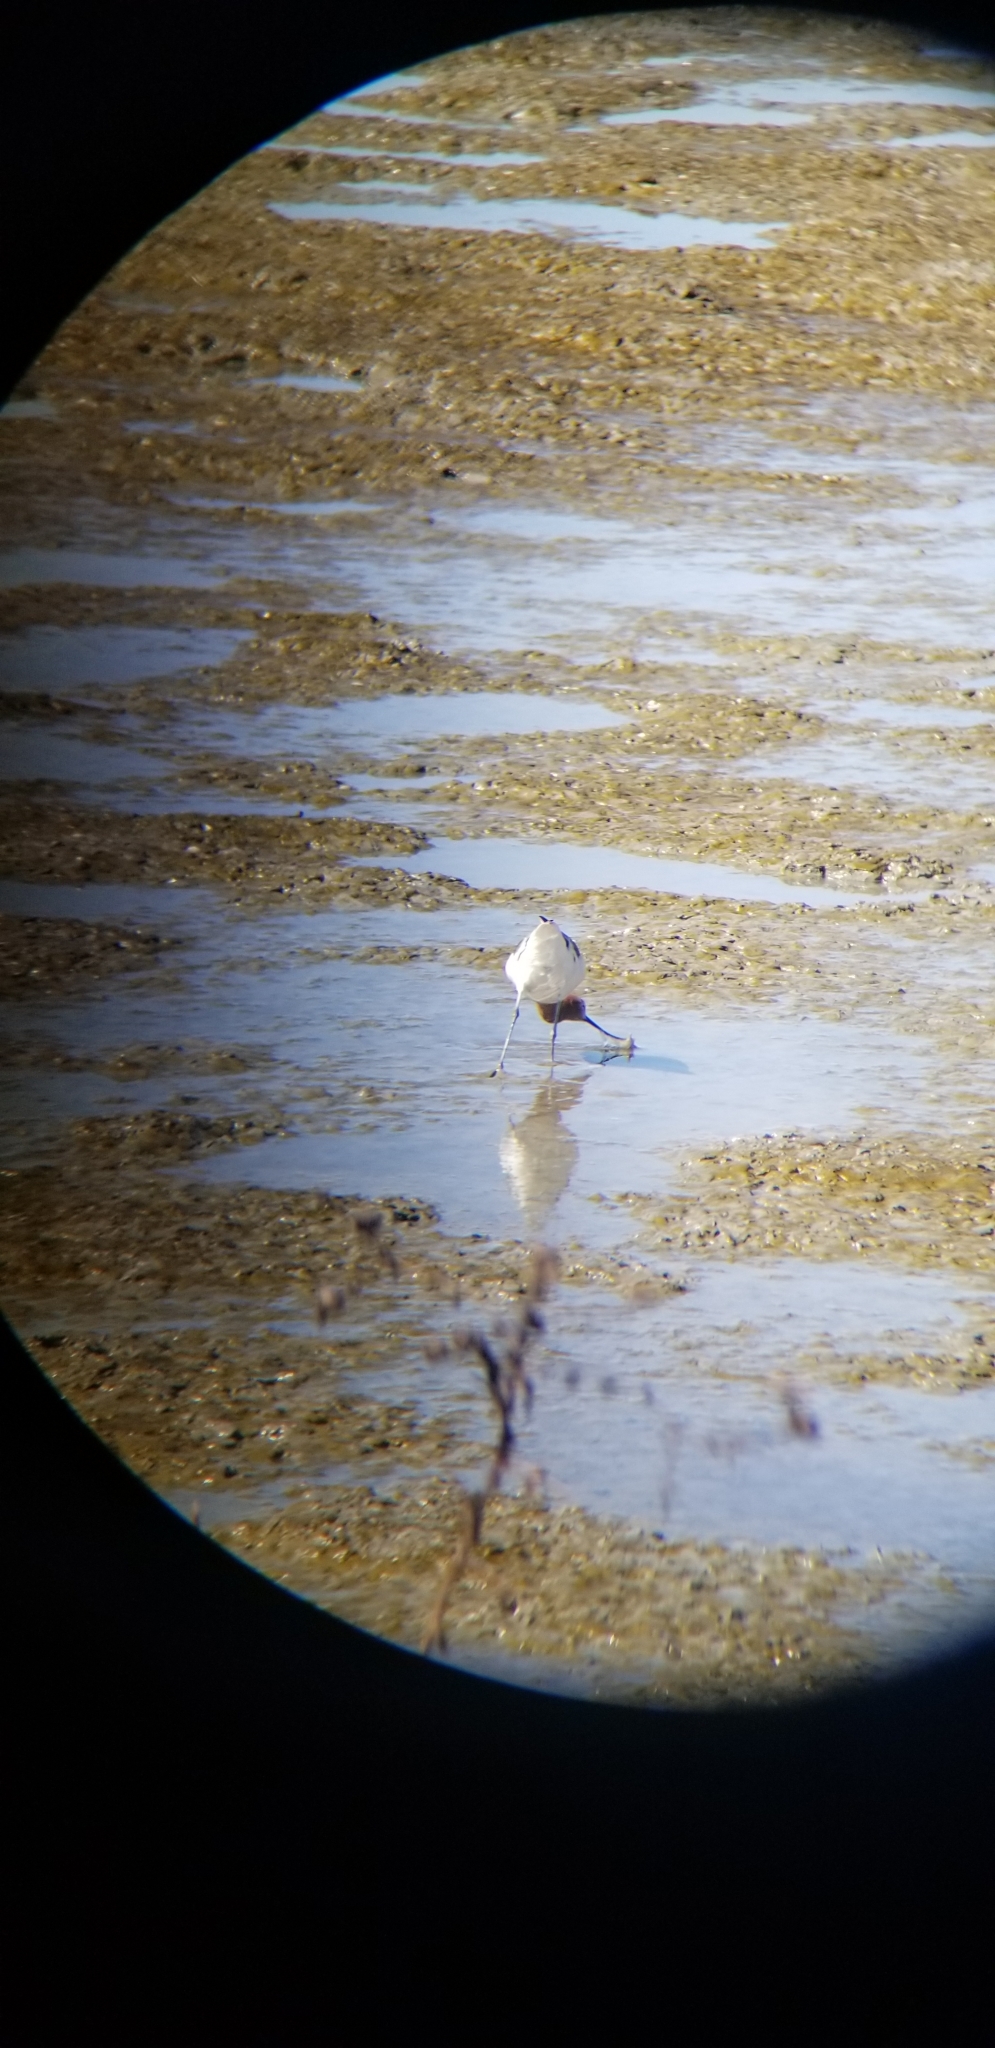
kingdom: Animalia
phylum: Chordata
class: Aves
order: Charadriiformes
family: Recurvirostridae
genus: Recurvirostra
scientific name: Recurvirostra americana
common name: American avocet
